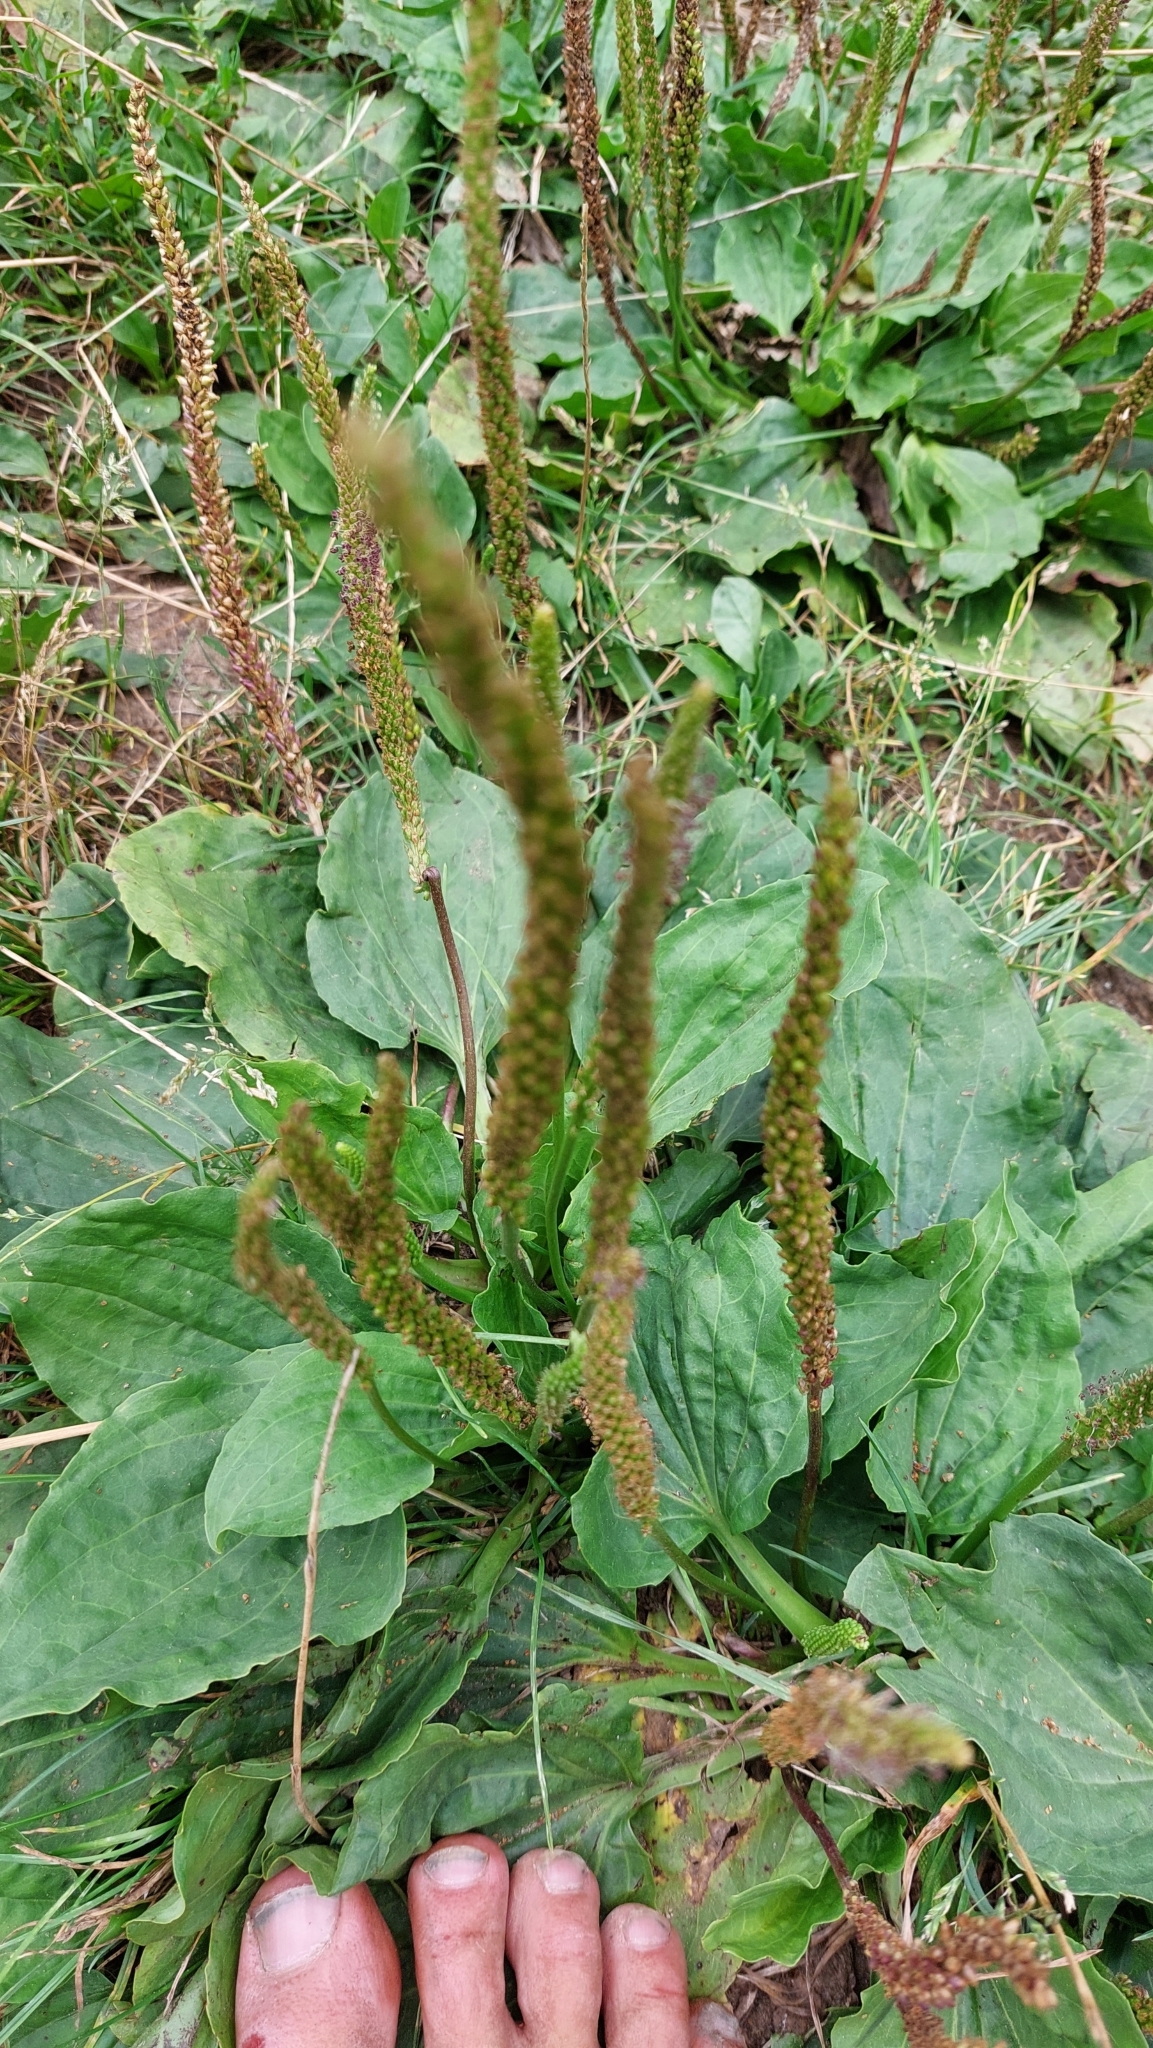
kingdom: Plantae
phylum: Tracheophyta
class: Magnoliopsida
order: Lamiales
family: Plantaginaceae
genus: Plantago
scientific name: Plantago major
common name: Common plantain
